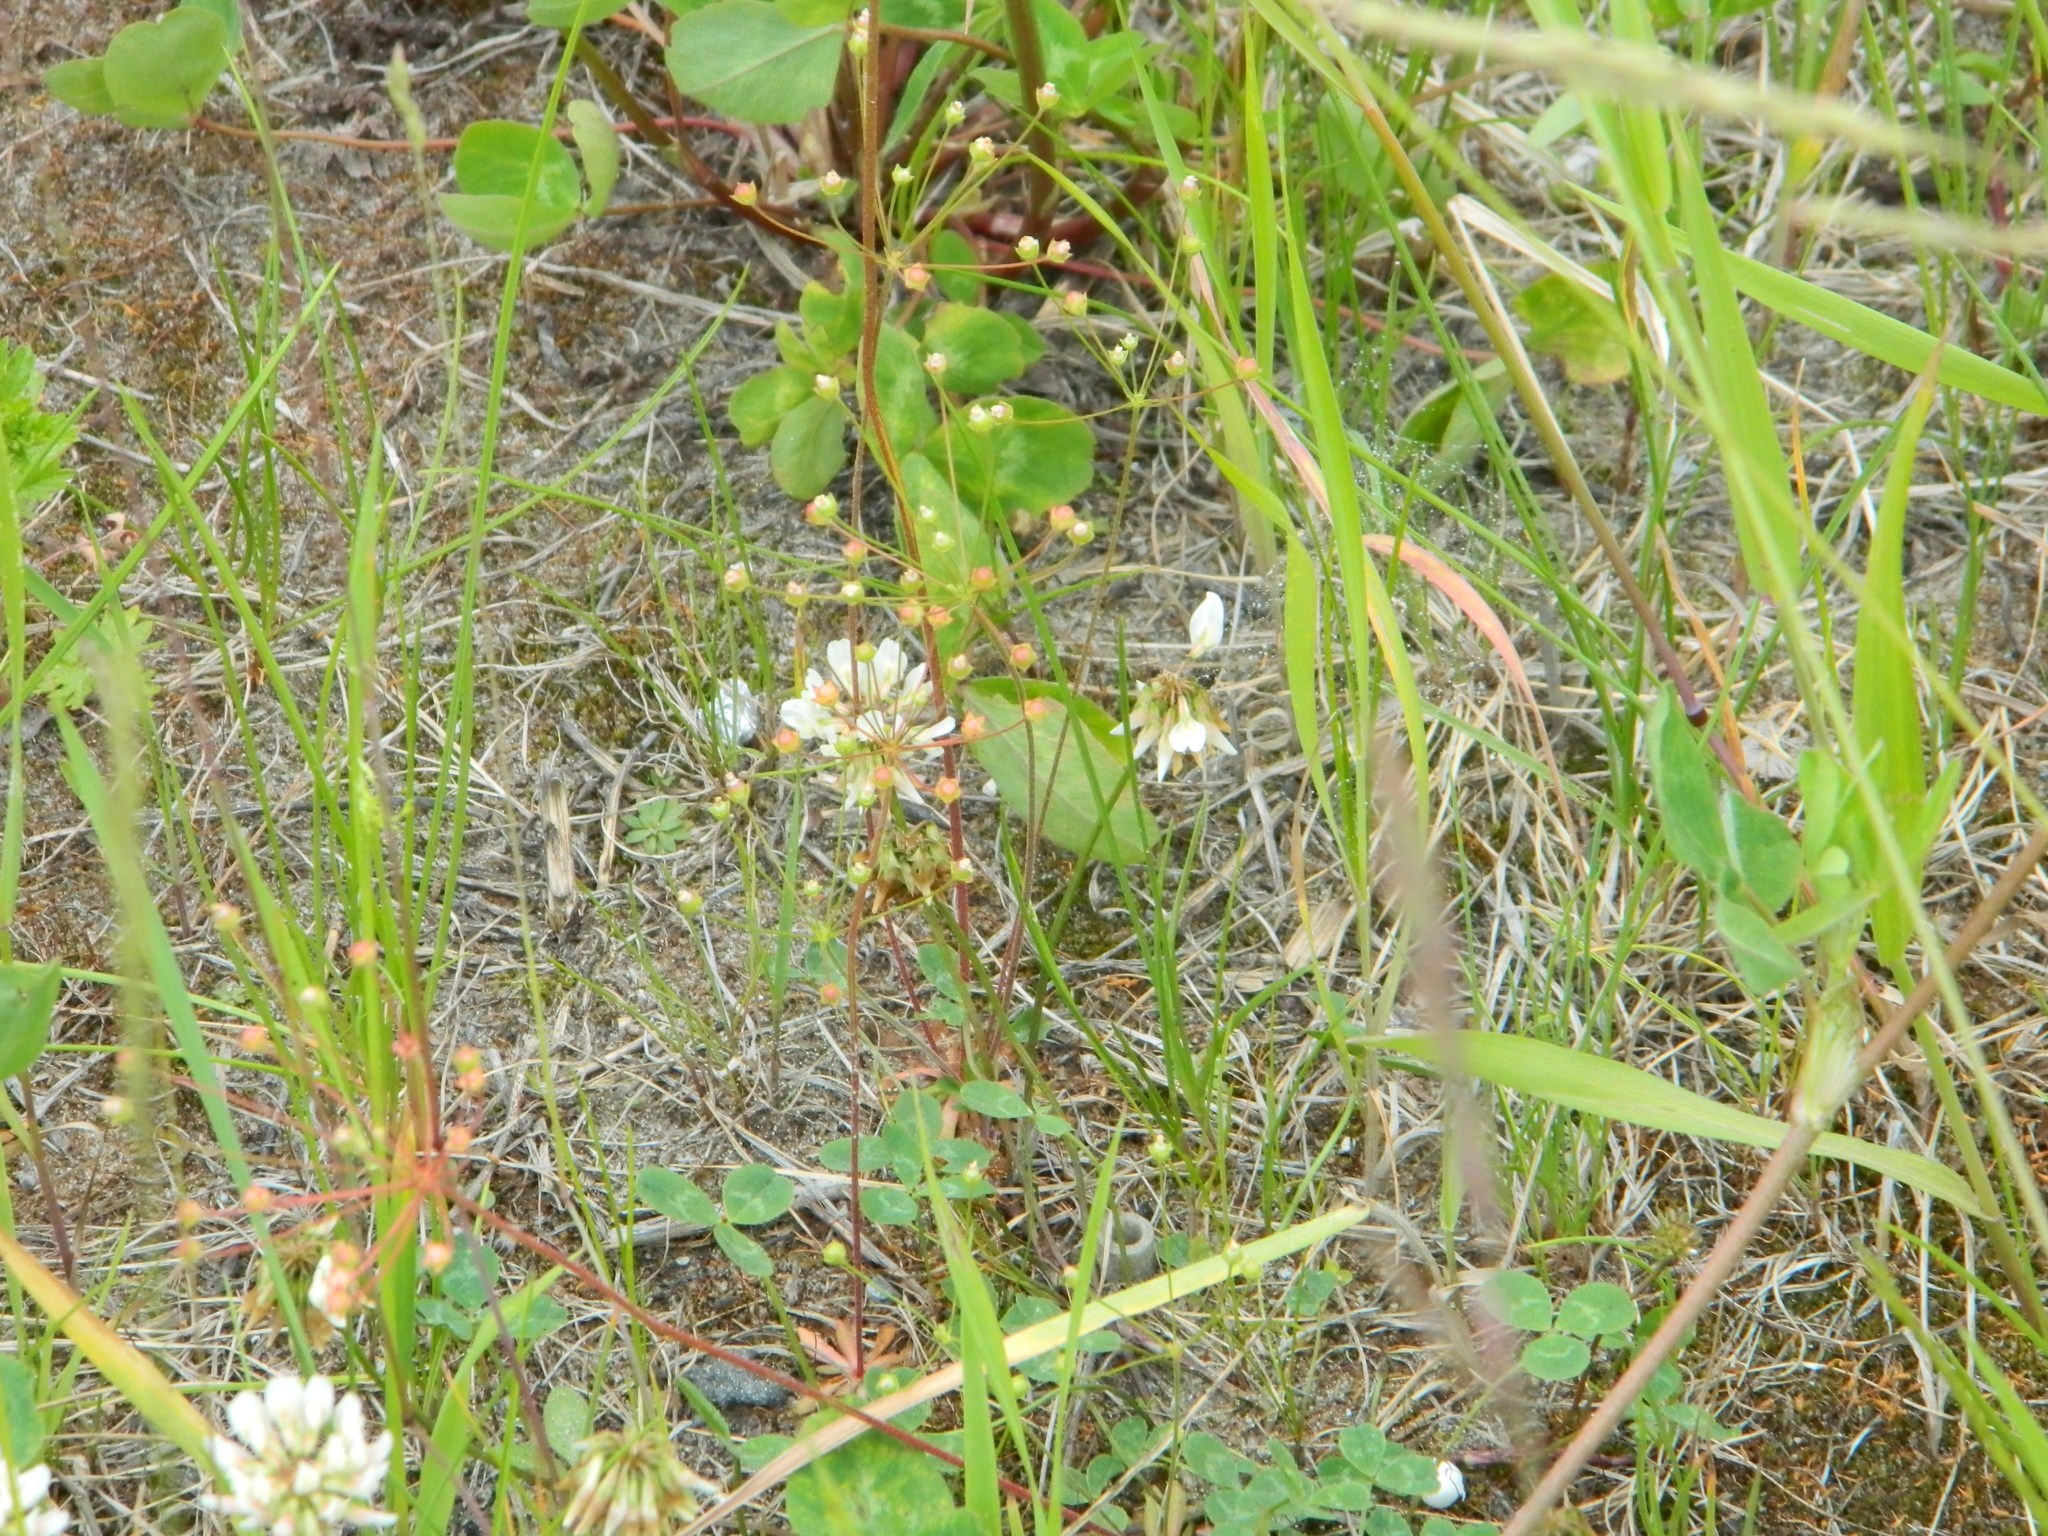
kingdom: Plantae
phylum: Tracheophyta
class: Magnoliopsida
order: Ericales
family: Primulaceae
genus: Androsace
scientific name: Androsace septentrionalis
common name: Hairy northern fairy-candelabra
